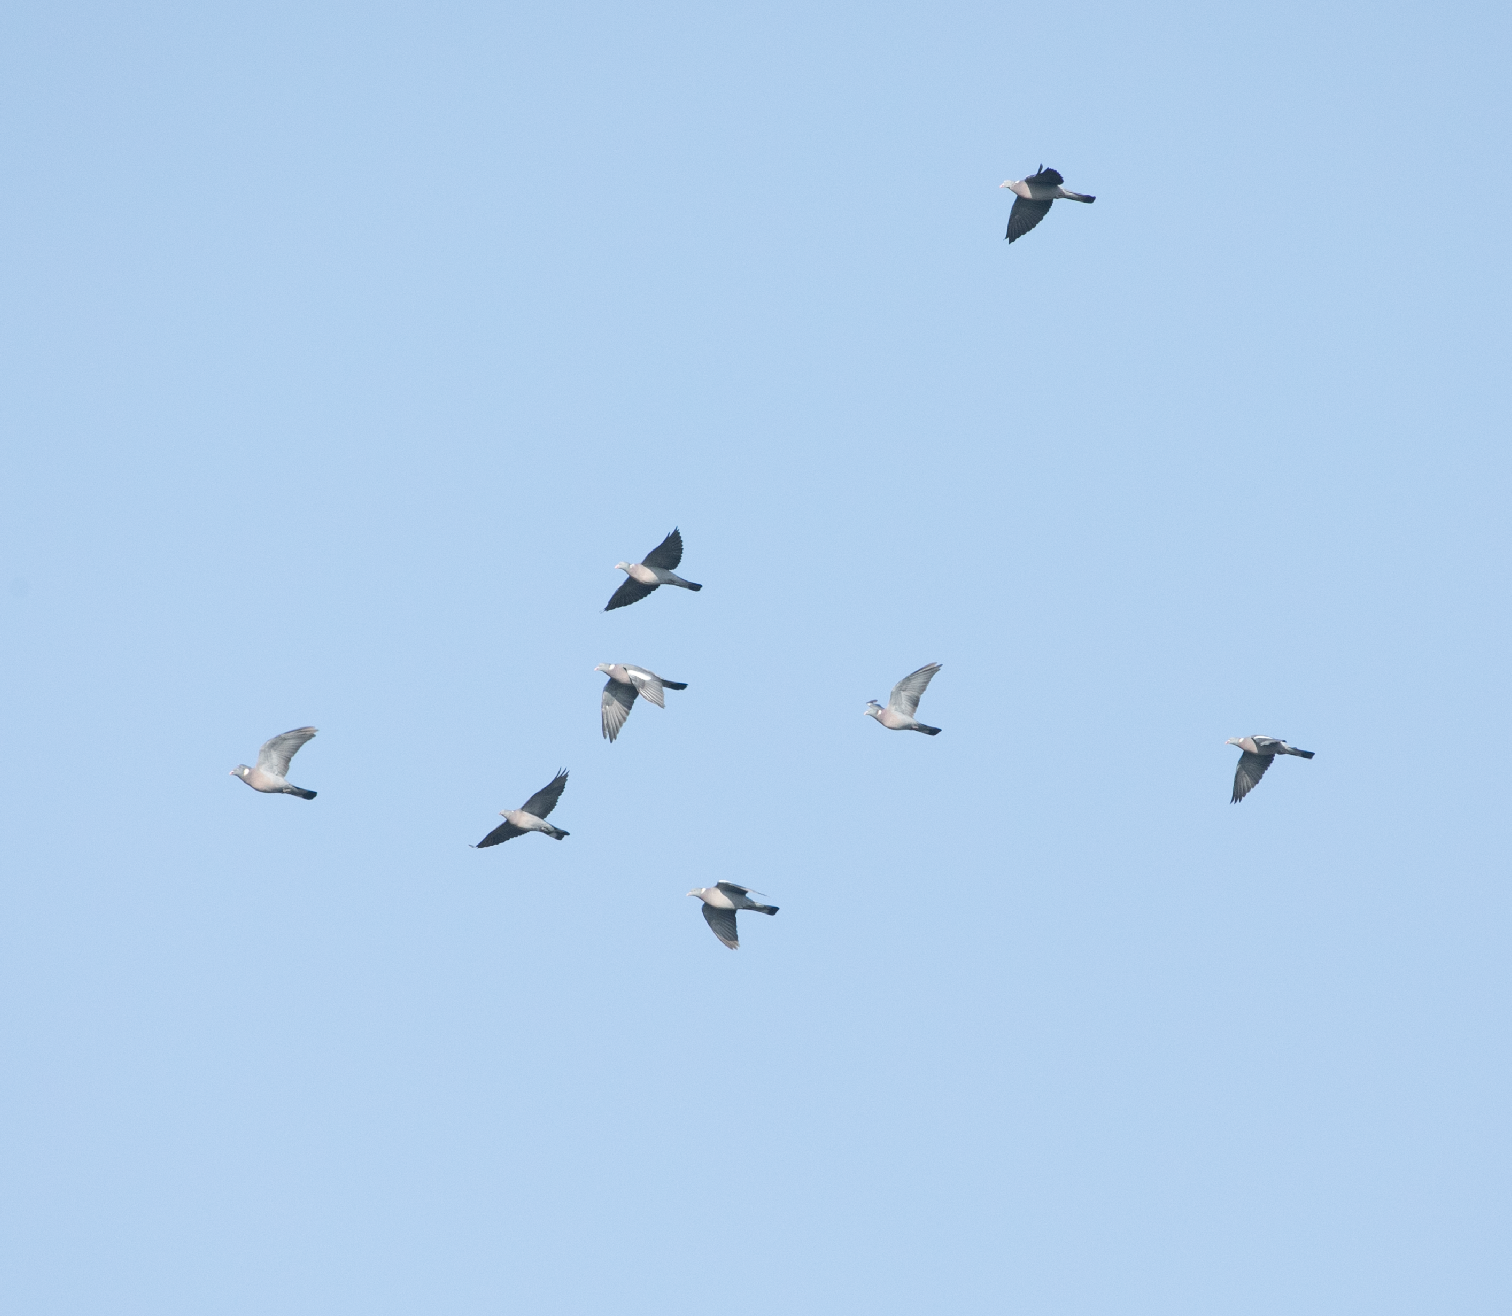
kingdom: Animalia
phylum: Chordata
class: Aves
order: Columbiformes
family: Columbidae
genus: Columba
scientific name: Columba palumbus
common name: Common wood pigeon
